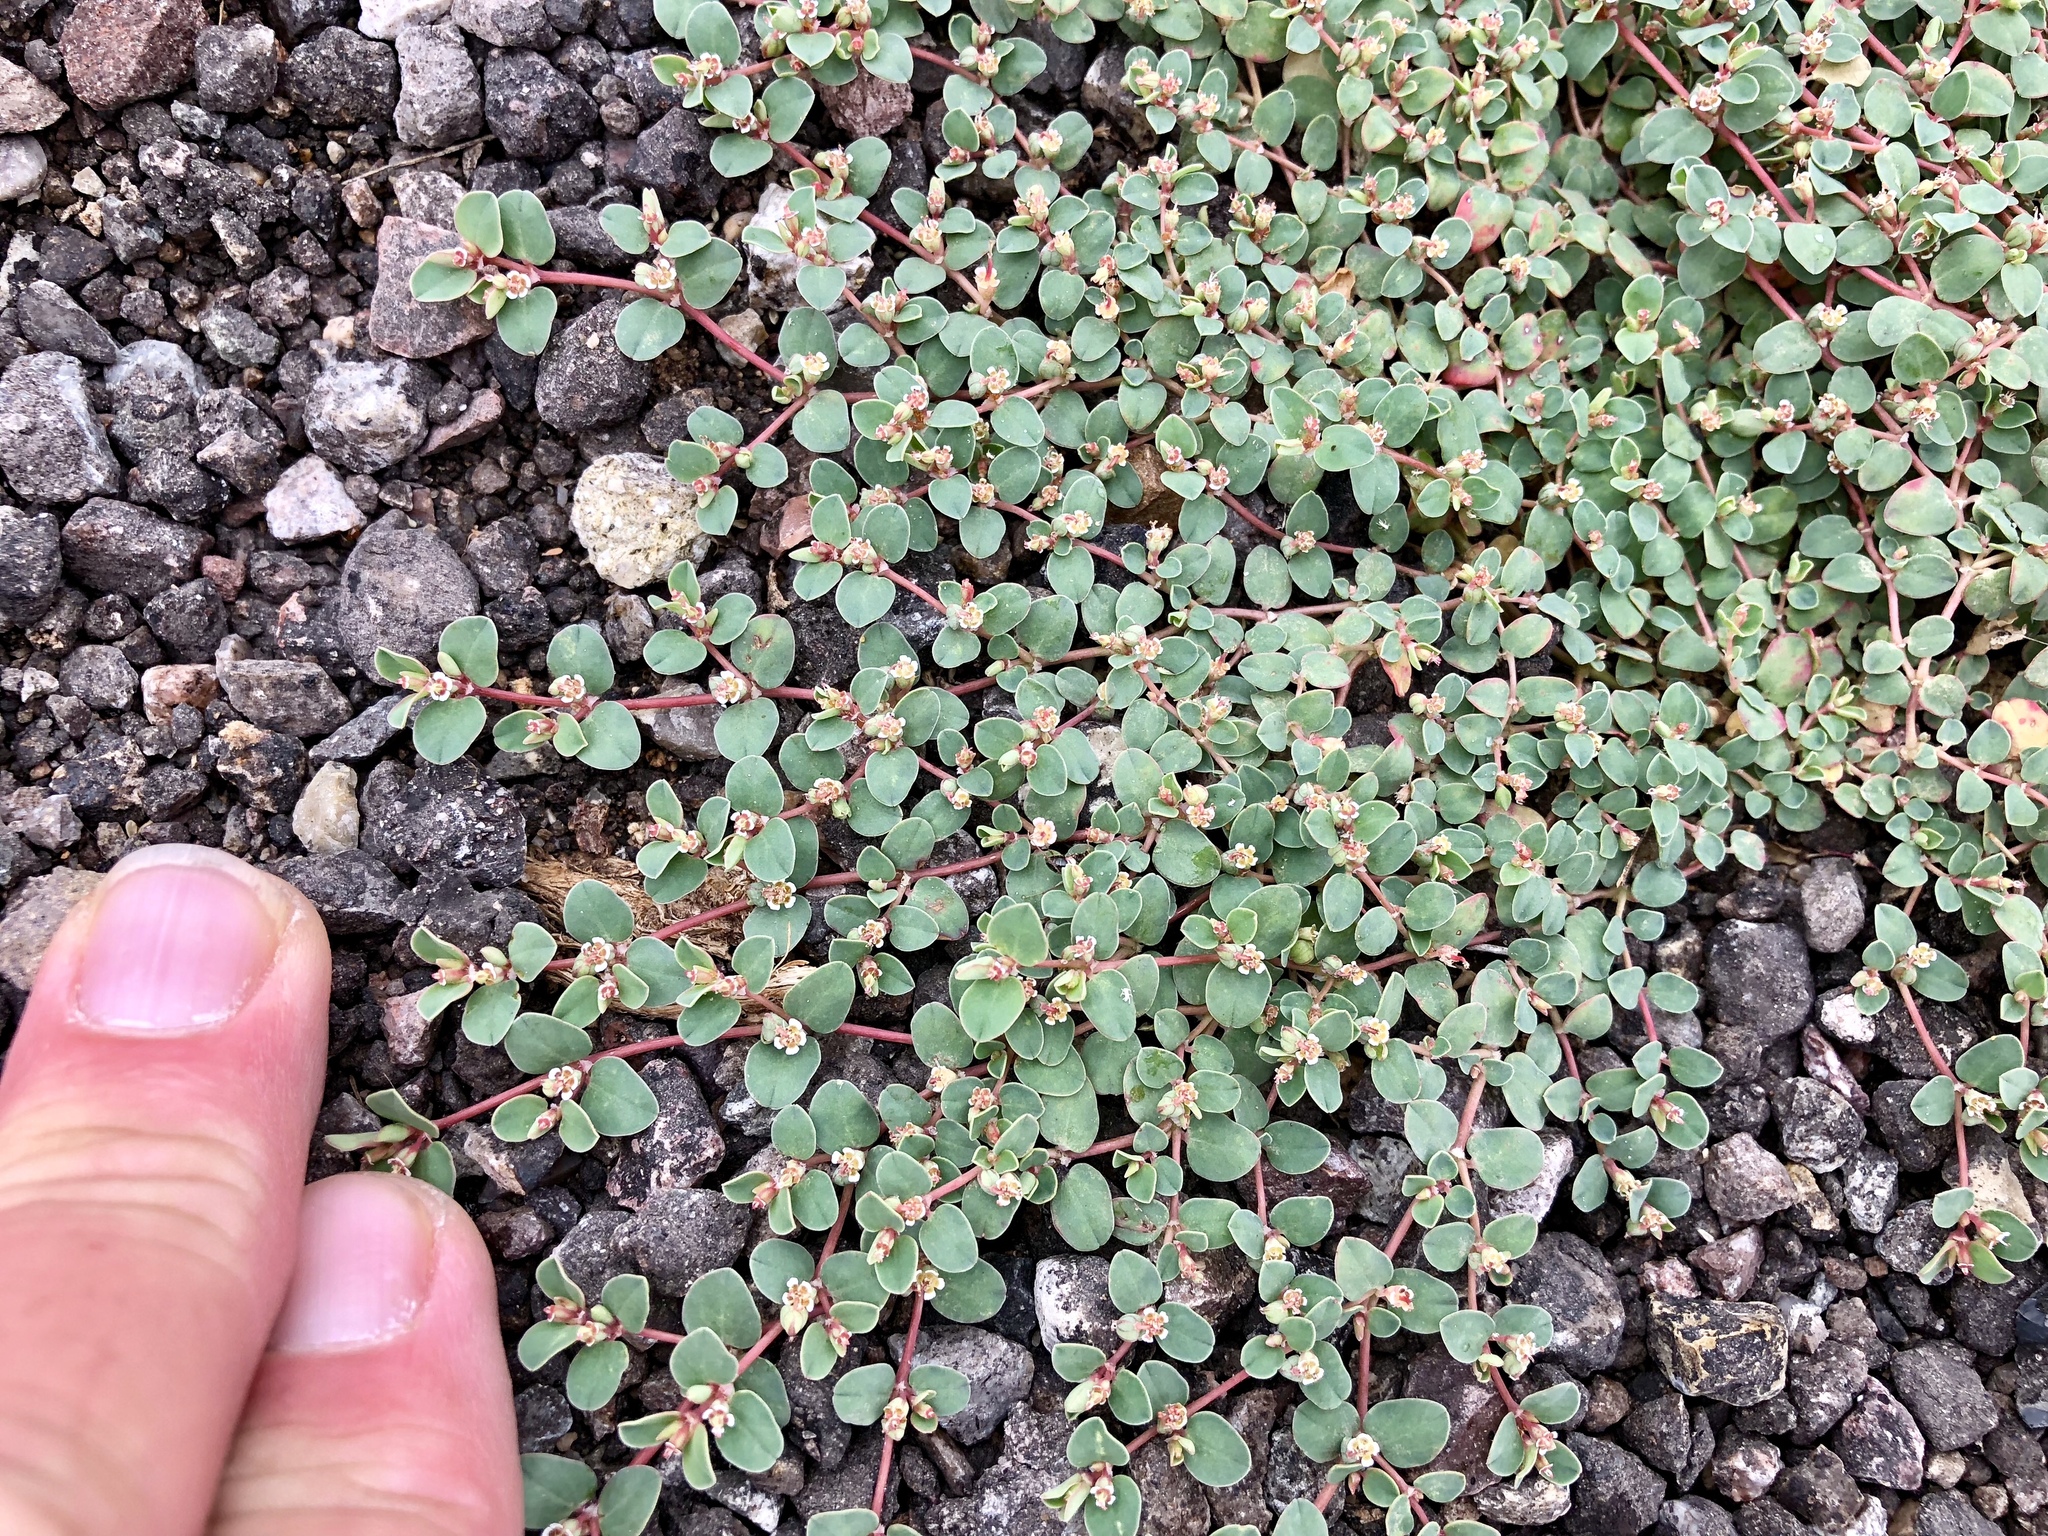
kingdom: Plantae
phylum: Tracheophyta
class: Magnoliopsida
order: Malpighiales
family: Euphorbiaceae
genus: Euphorbia
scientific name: Euphorbia albomarginata
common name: Whitemargin sandmat
